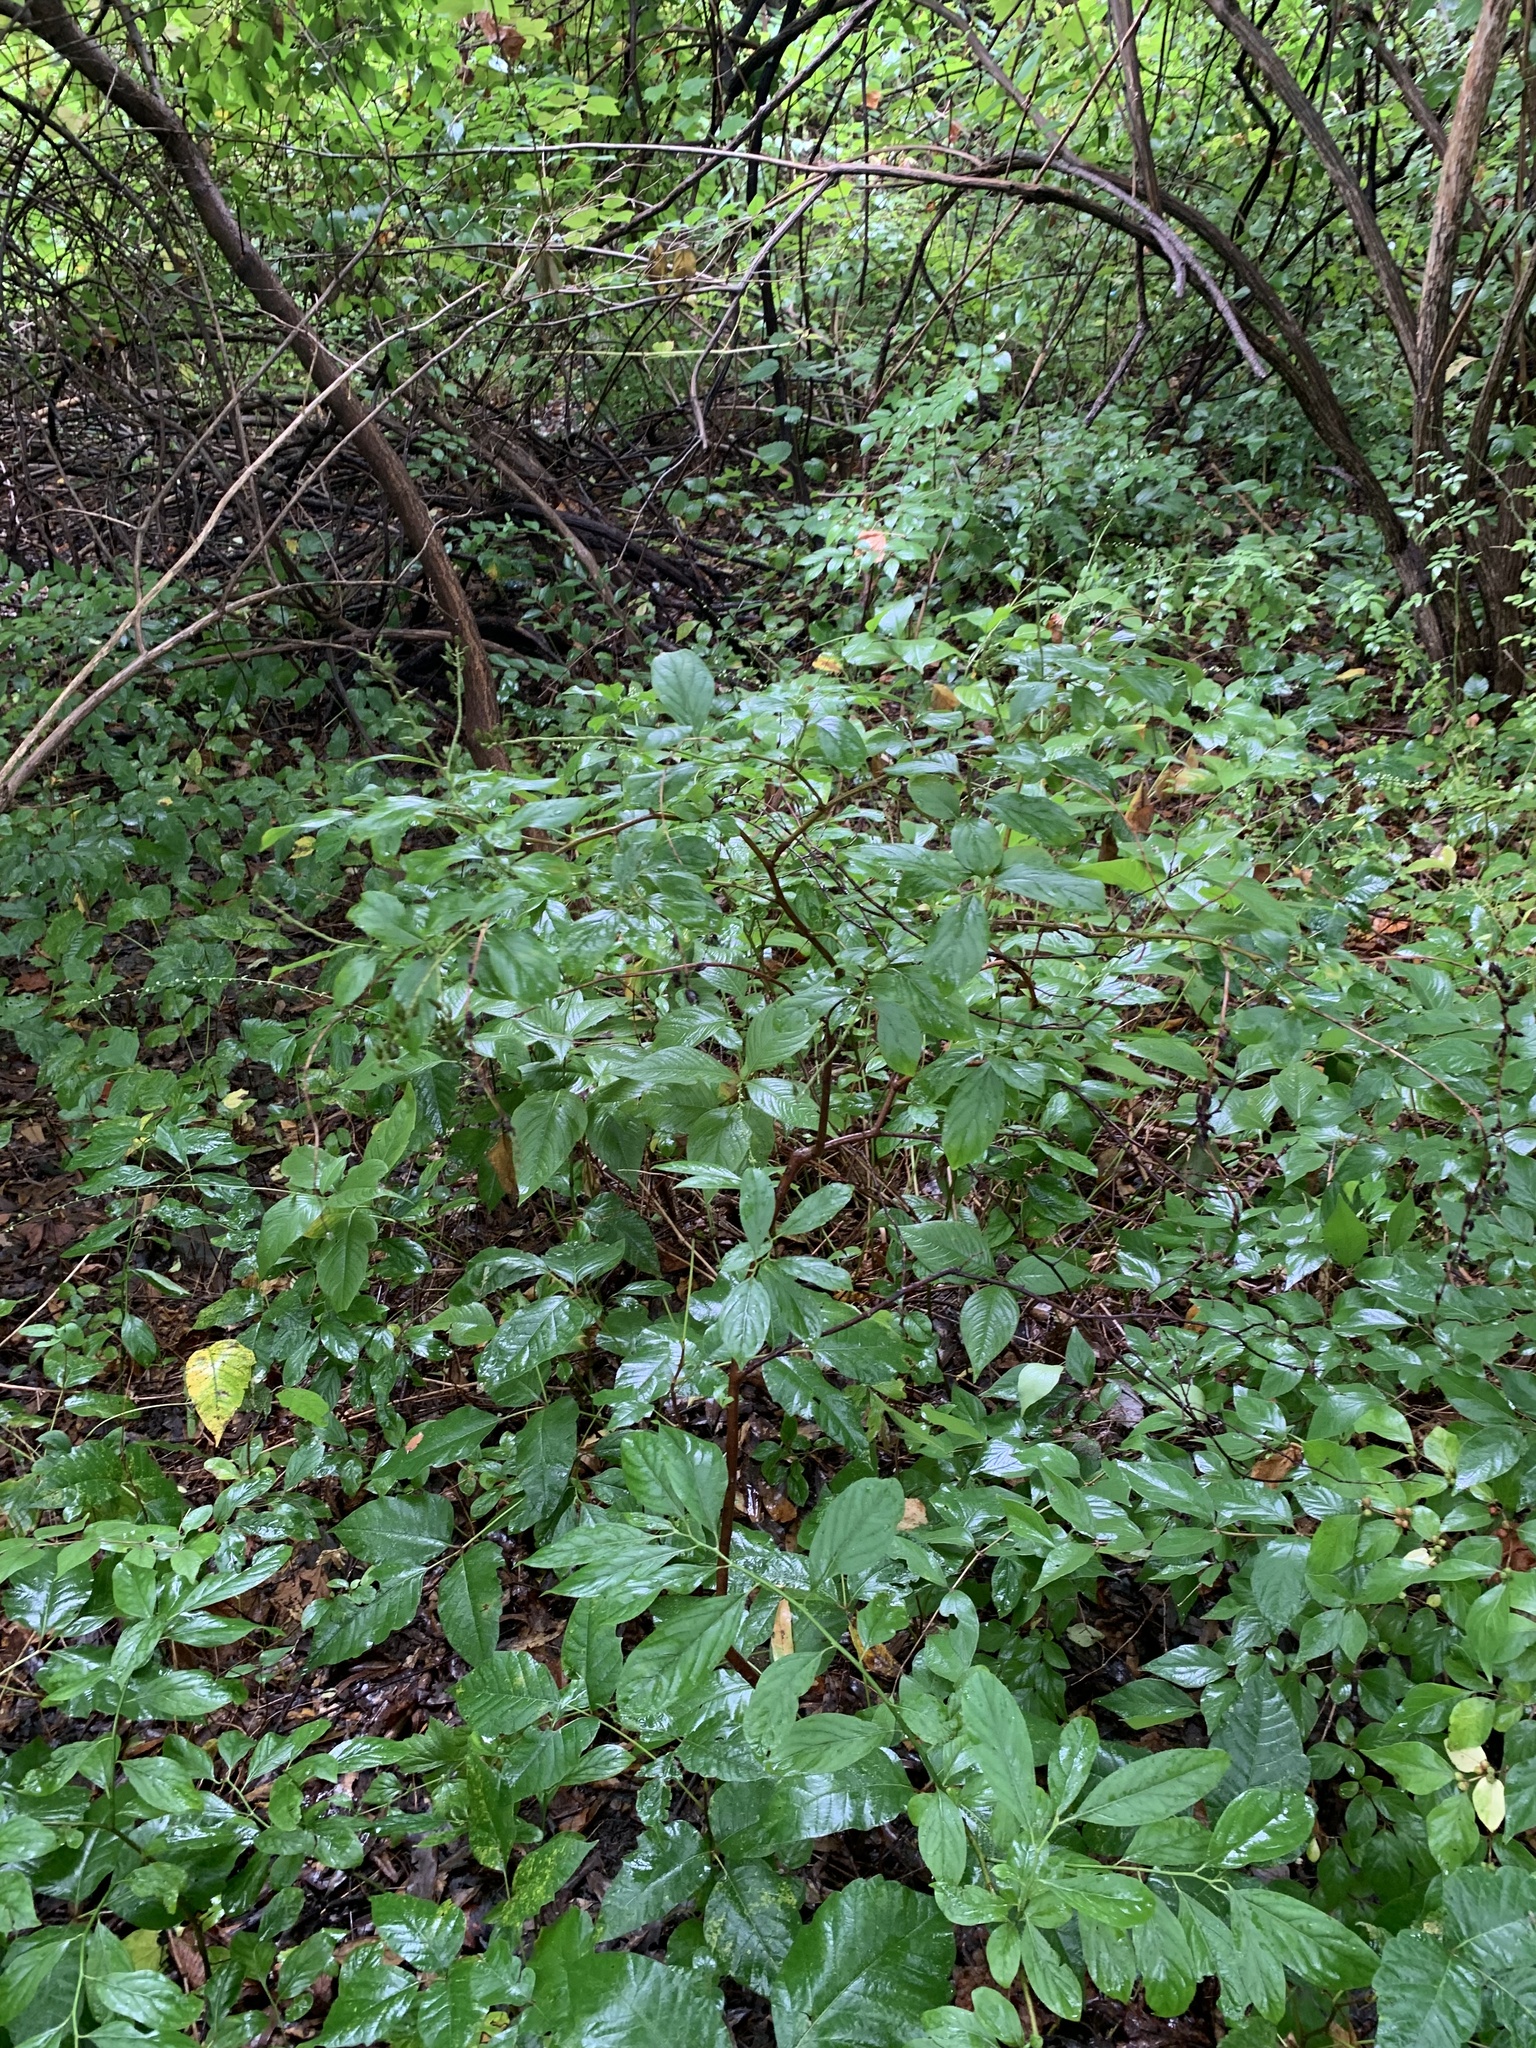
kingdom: Plantae
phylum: Tracheophyta
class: Magnoliopsida
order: Saxifragales
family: Iteaceae
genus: Itea
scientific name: Itea virginica
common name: Sweetspire
